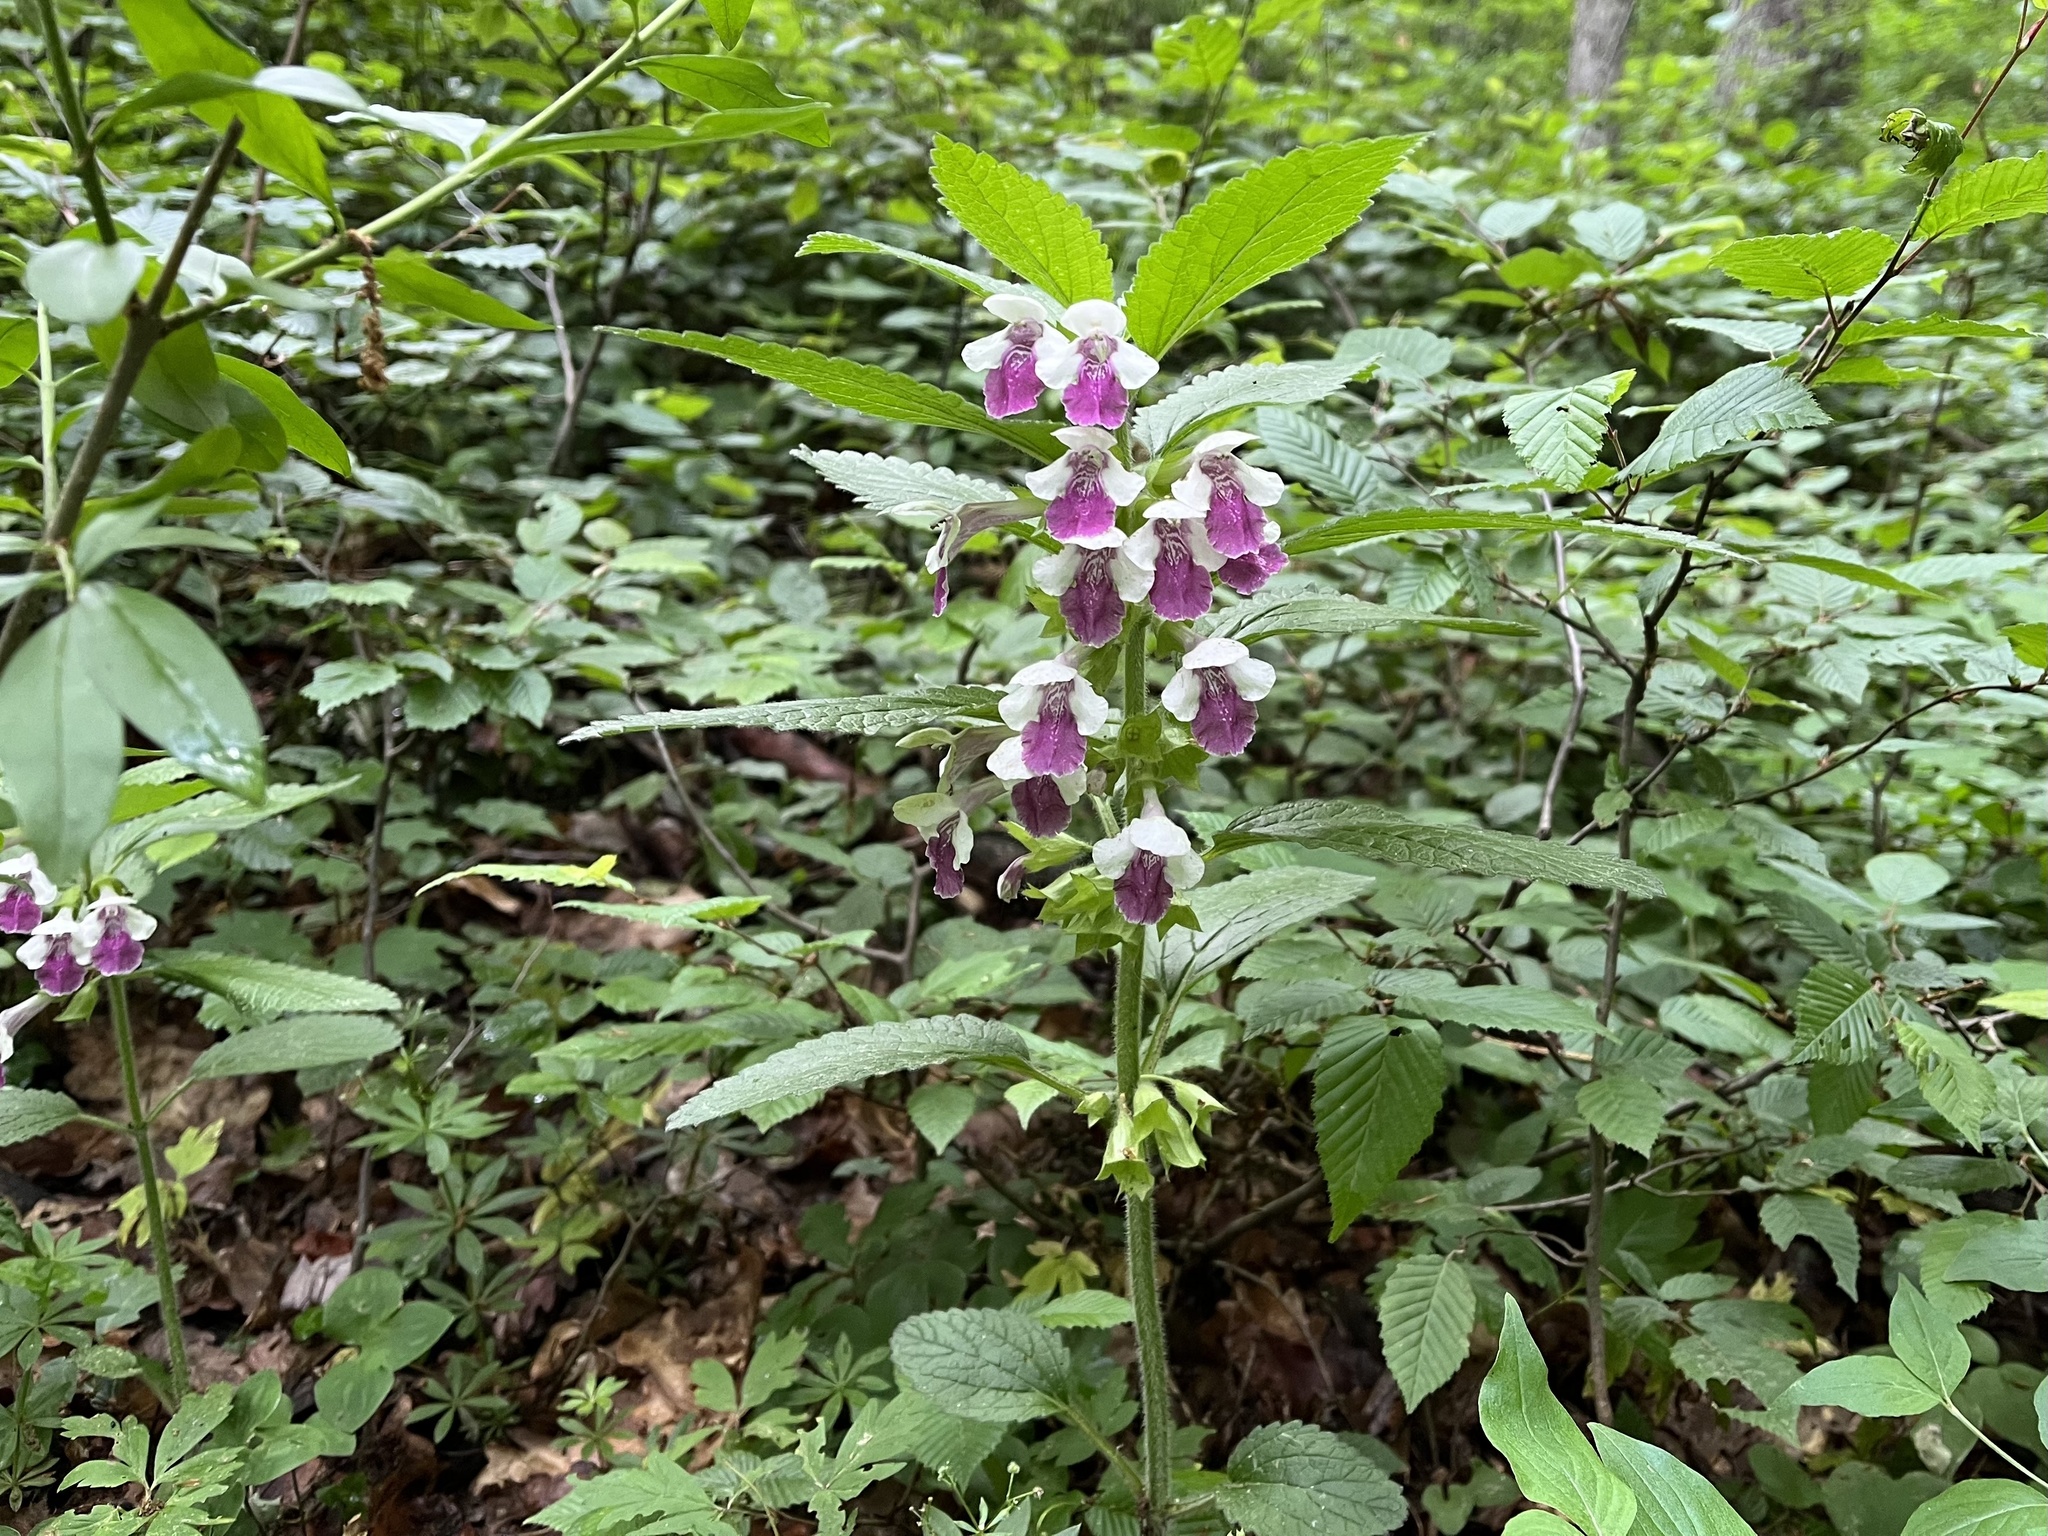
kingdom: Plantae
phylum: Tracheophyta
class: Magnoliopsida
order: Lamiales
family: Lamiaceae
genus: Melittis
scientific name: Melittis melissophyllum
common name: Bastard balm
